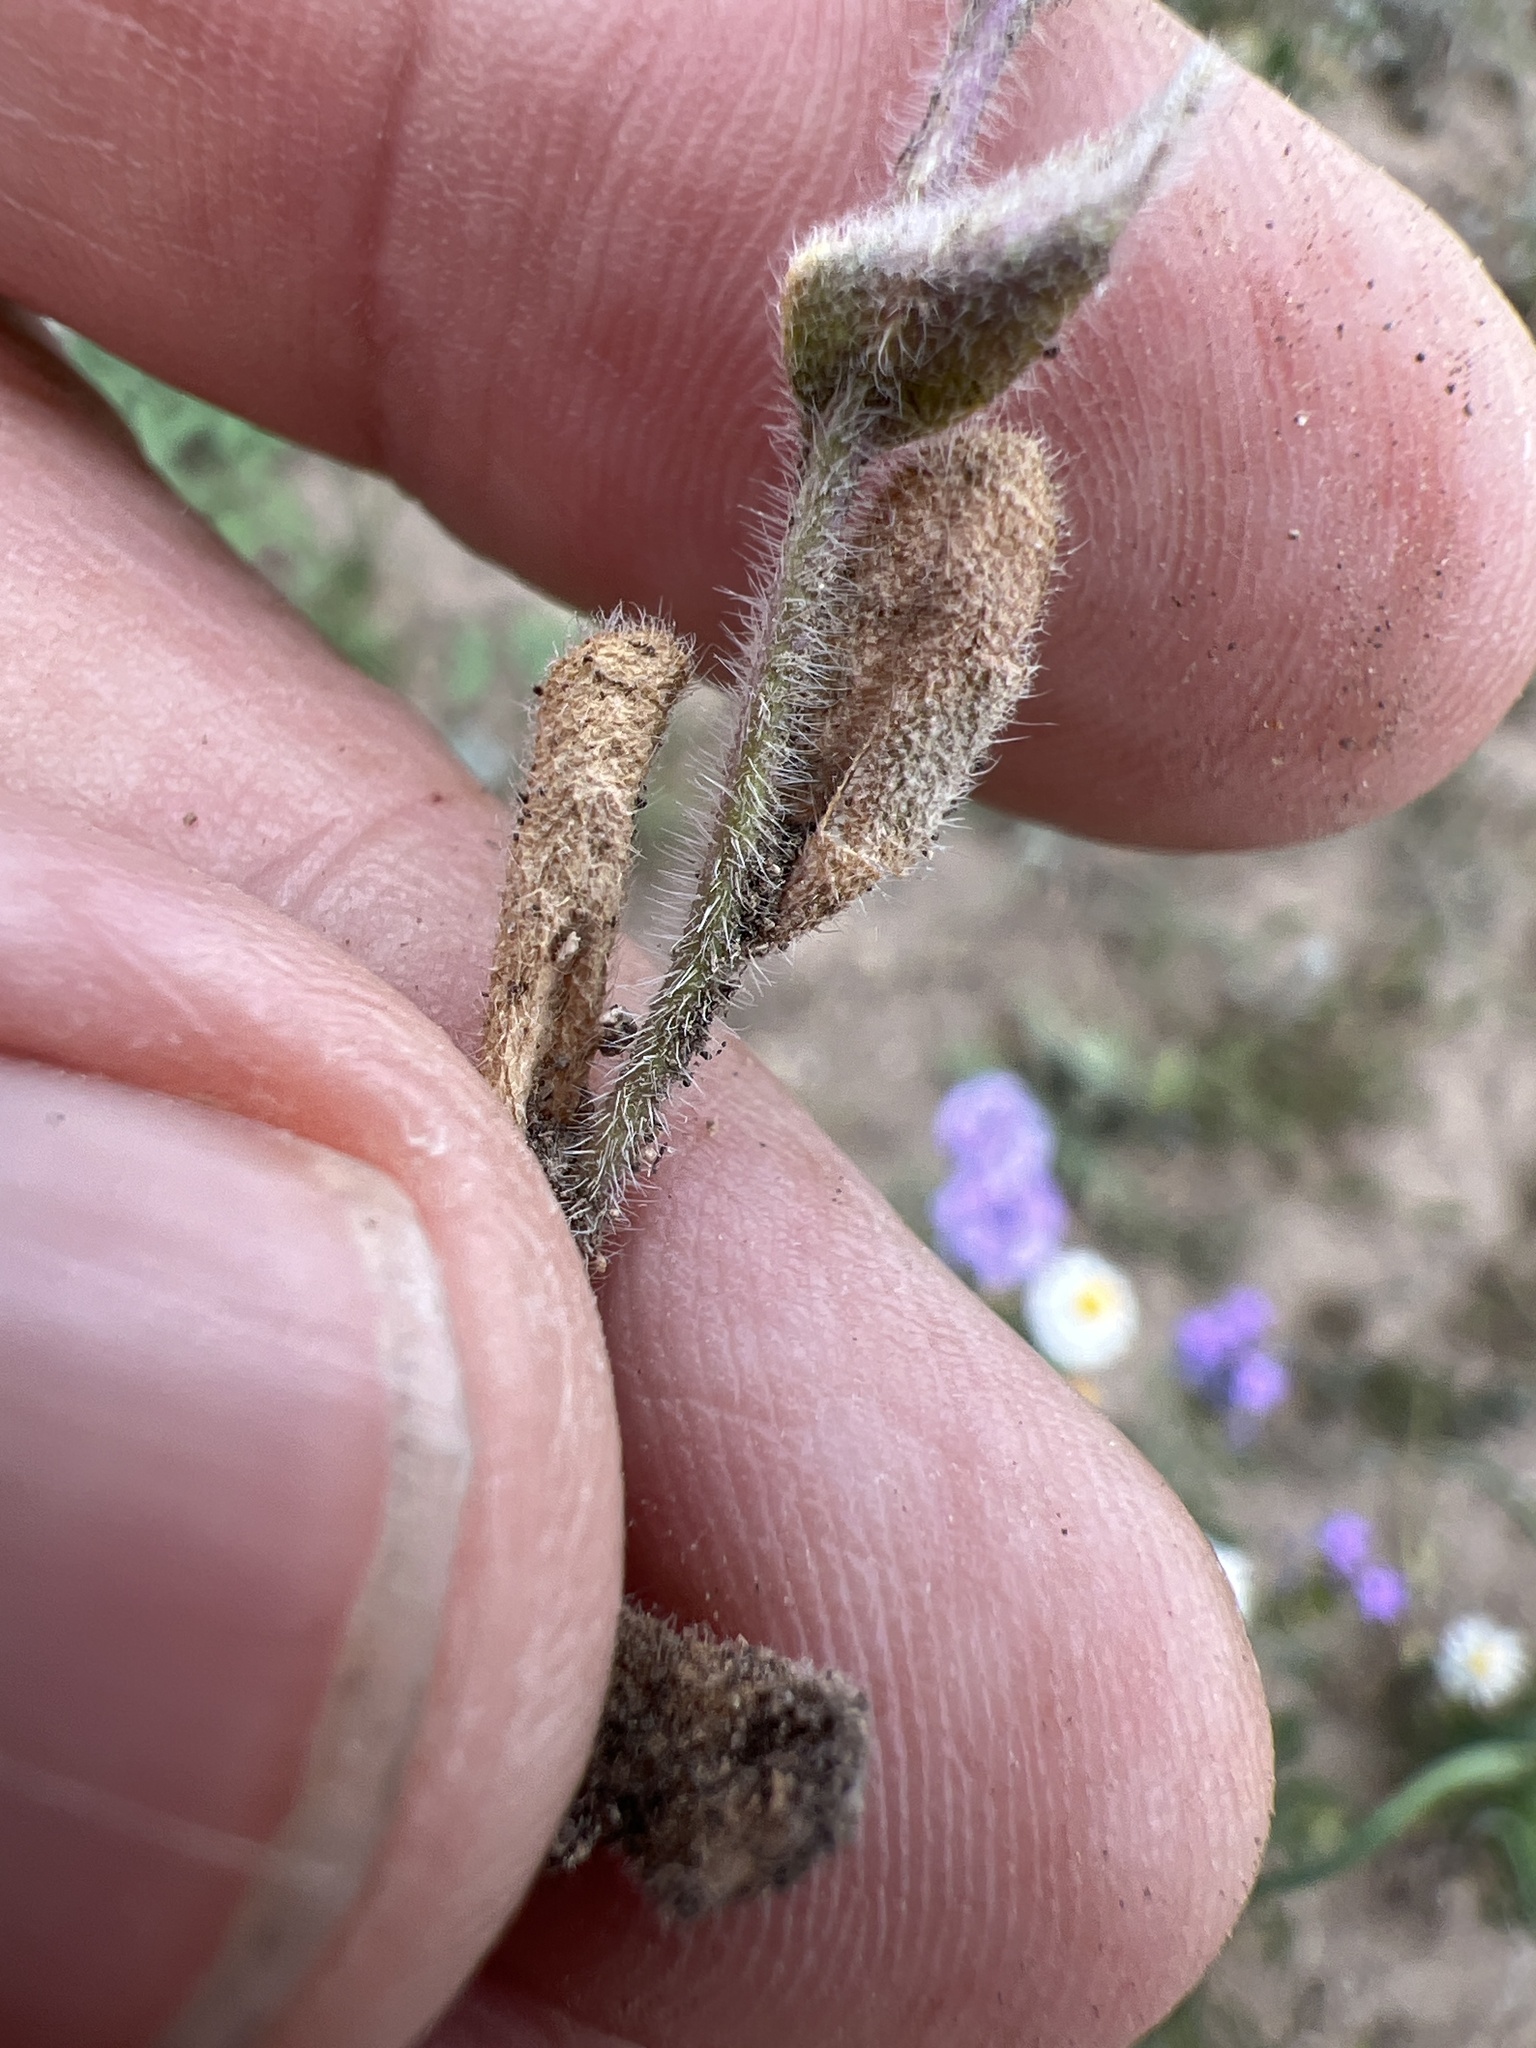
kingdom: Plantae
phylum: Tracheophyta
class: Magnoliopsida
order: Brassicales
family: Brassicaceae
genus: Tomostima
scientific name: Tomostima platycarpa
